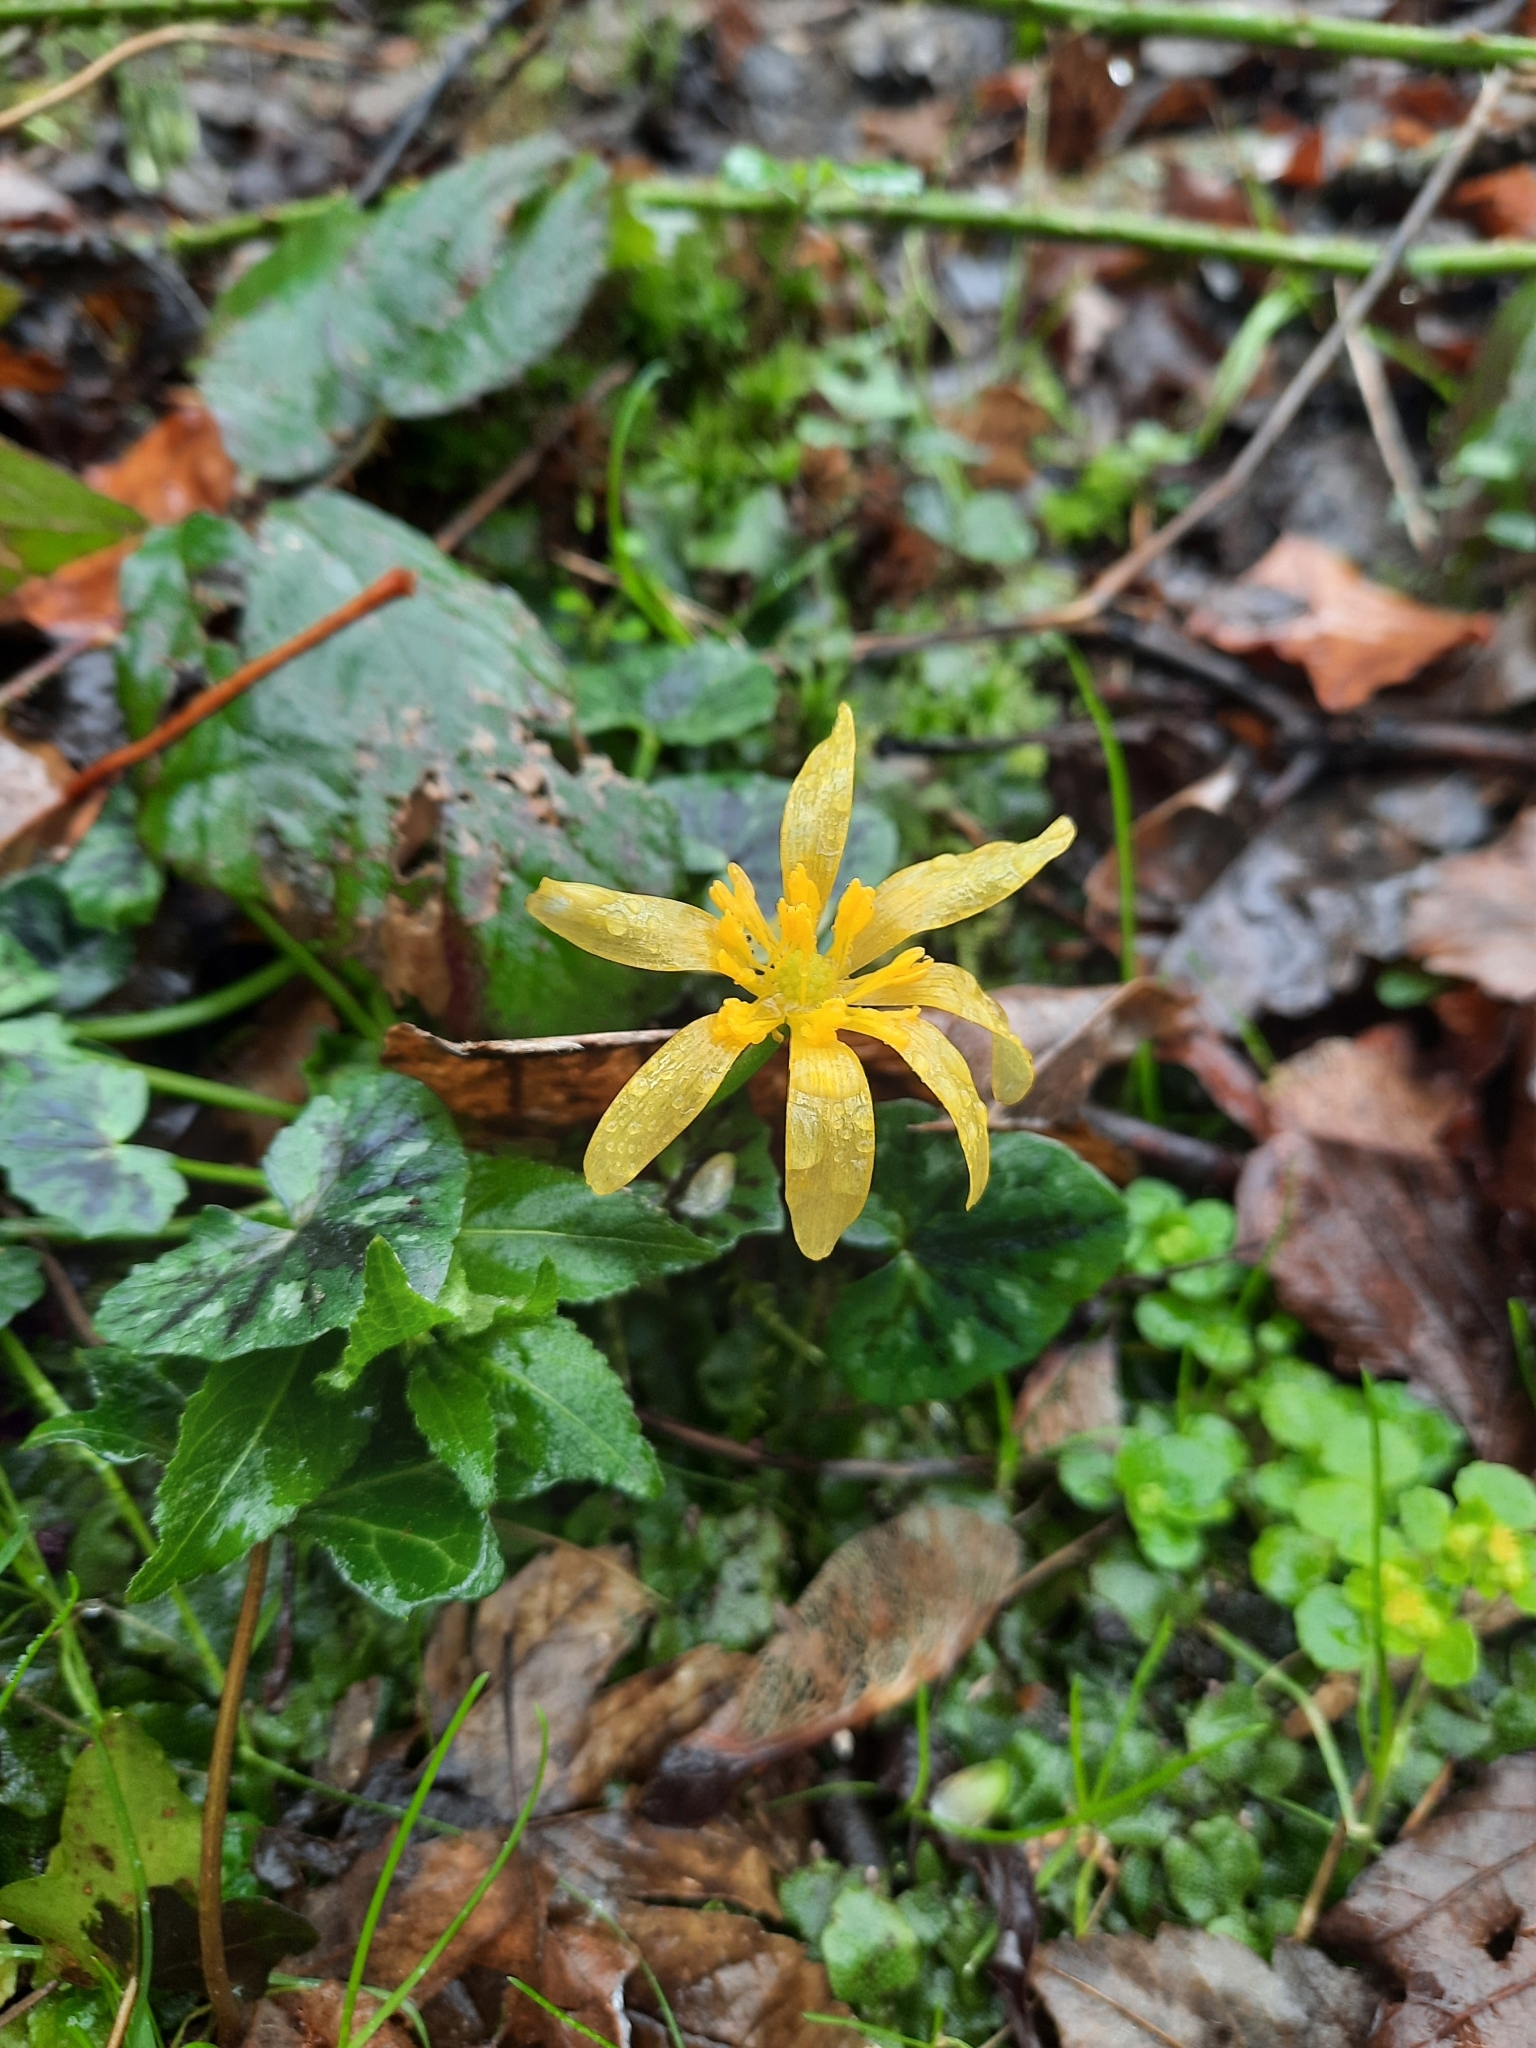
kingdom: Plantae
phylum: Tracheophyta
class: Magnoliopsida
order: Ranunculales
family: Ranunculaceae
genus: Ficaria
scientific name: Ficaria verna
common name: Lesser celandine
